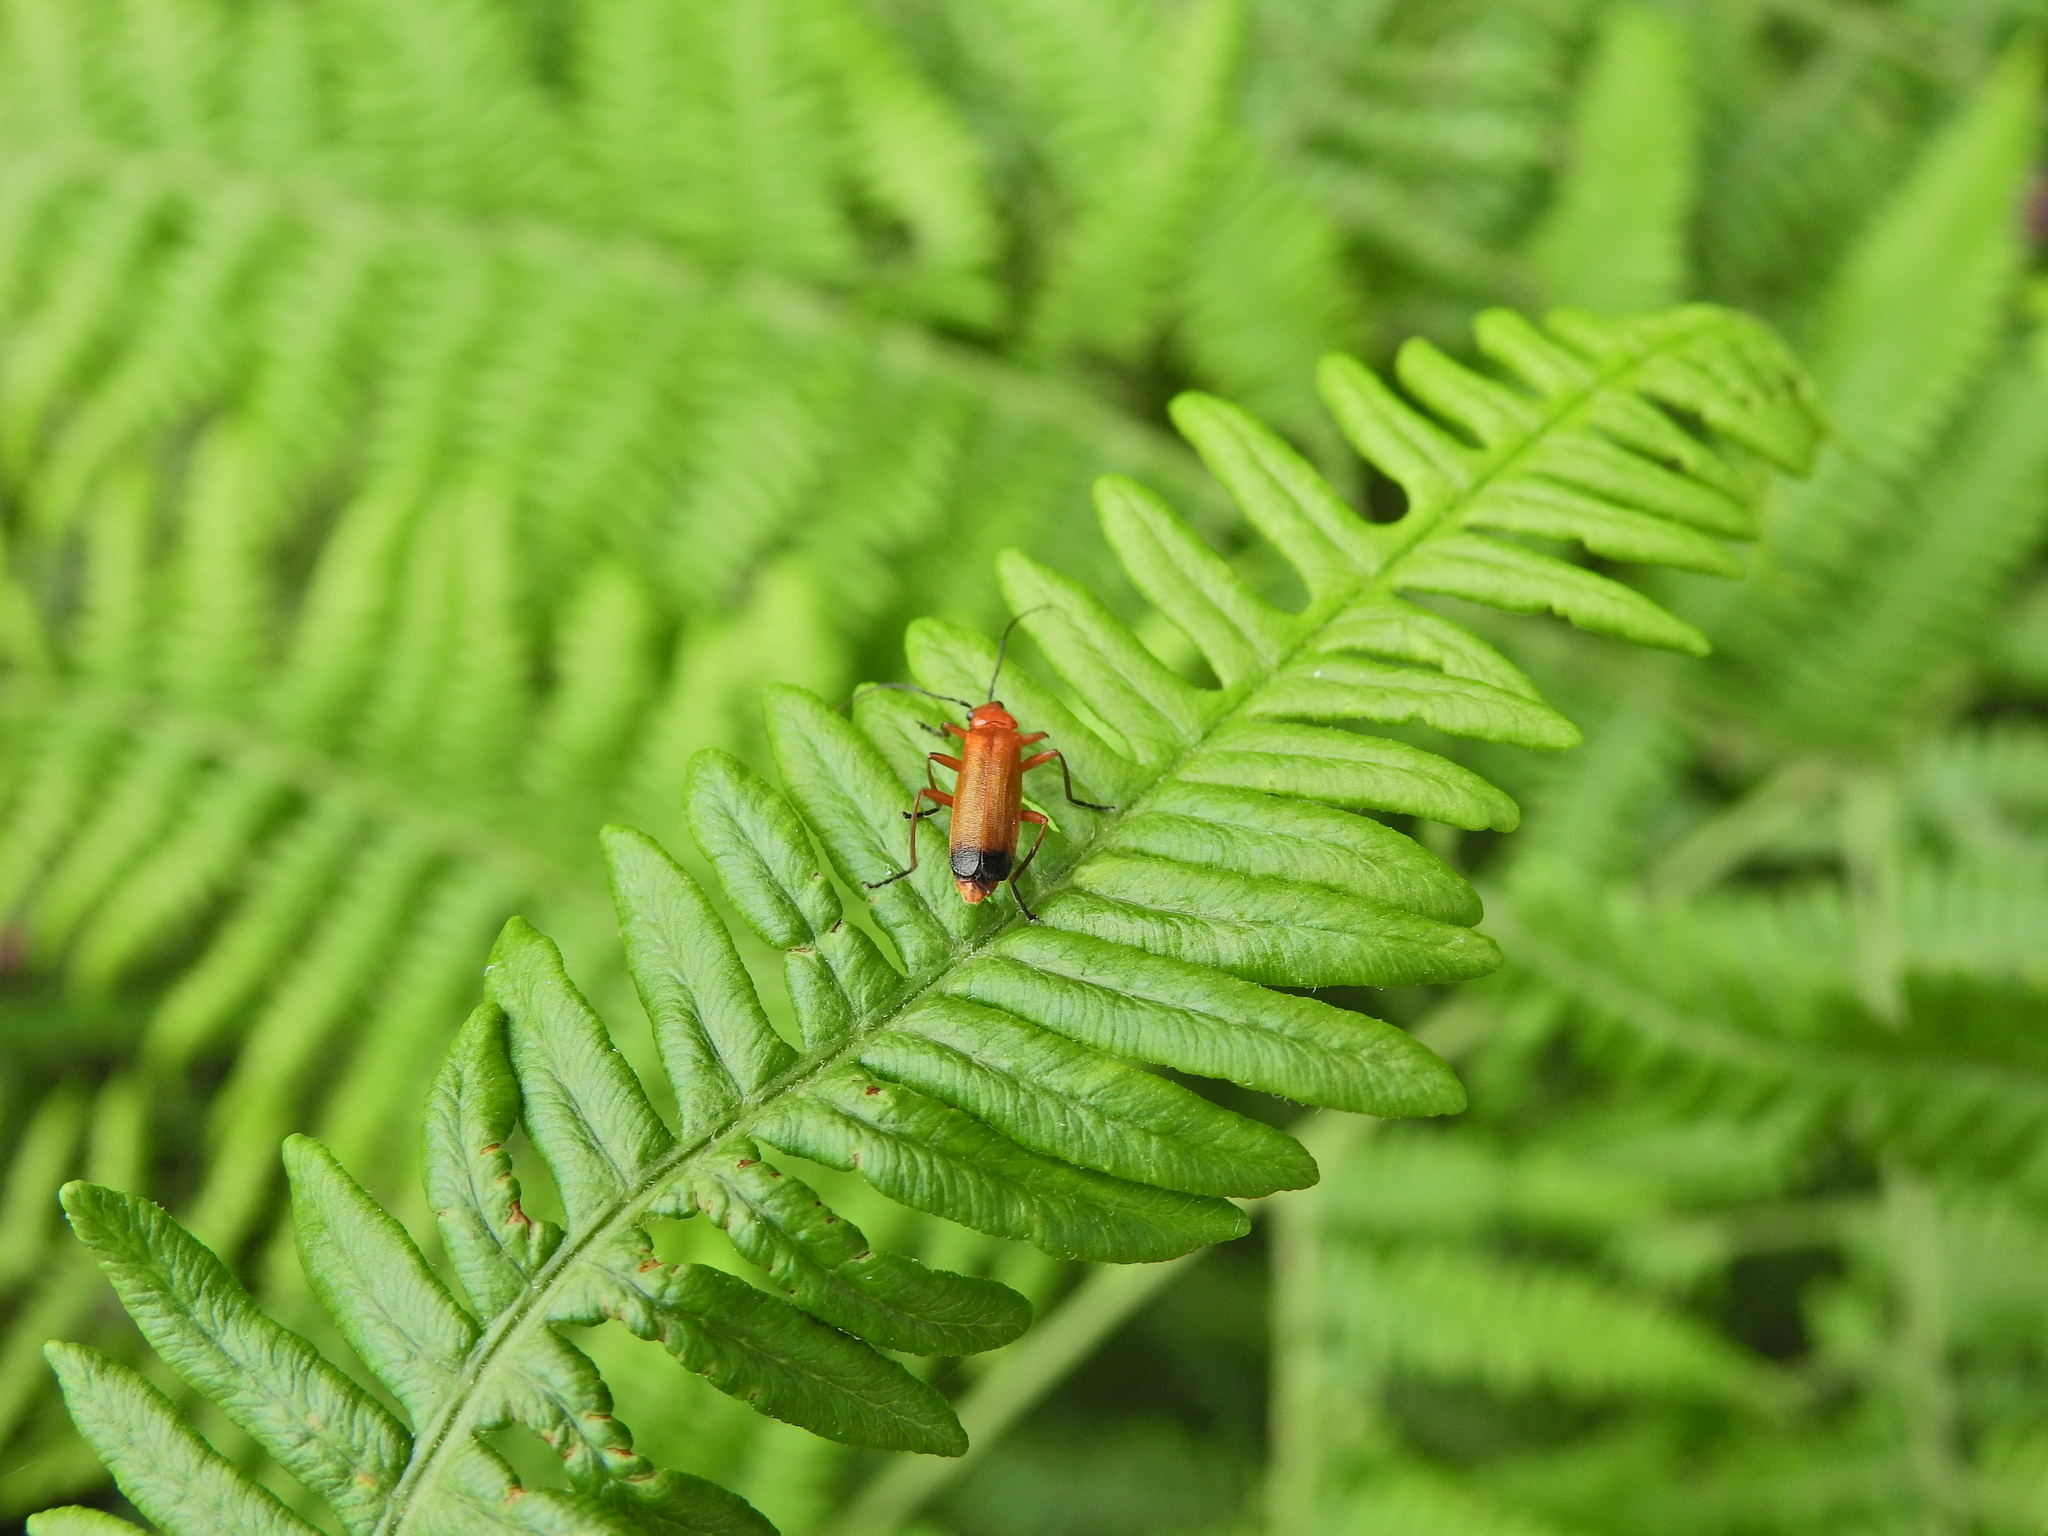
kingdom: Animalia
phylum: Arthropoda
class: Insecta
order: Coleoptera
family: Cantharidae
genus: Rhagonycha
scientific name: Rhagonycha fulva
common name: Common red soldier beetle
